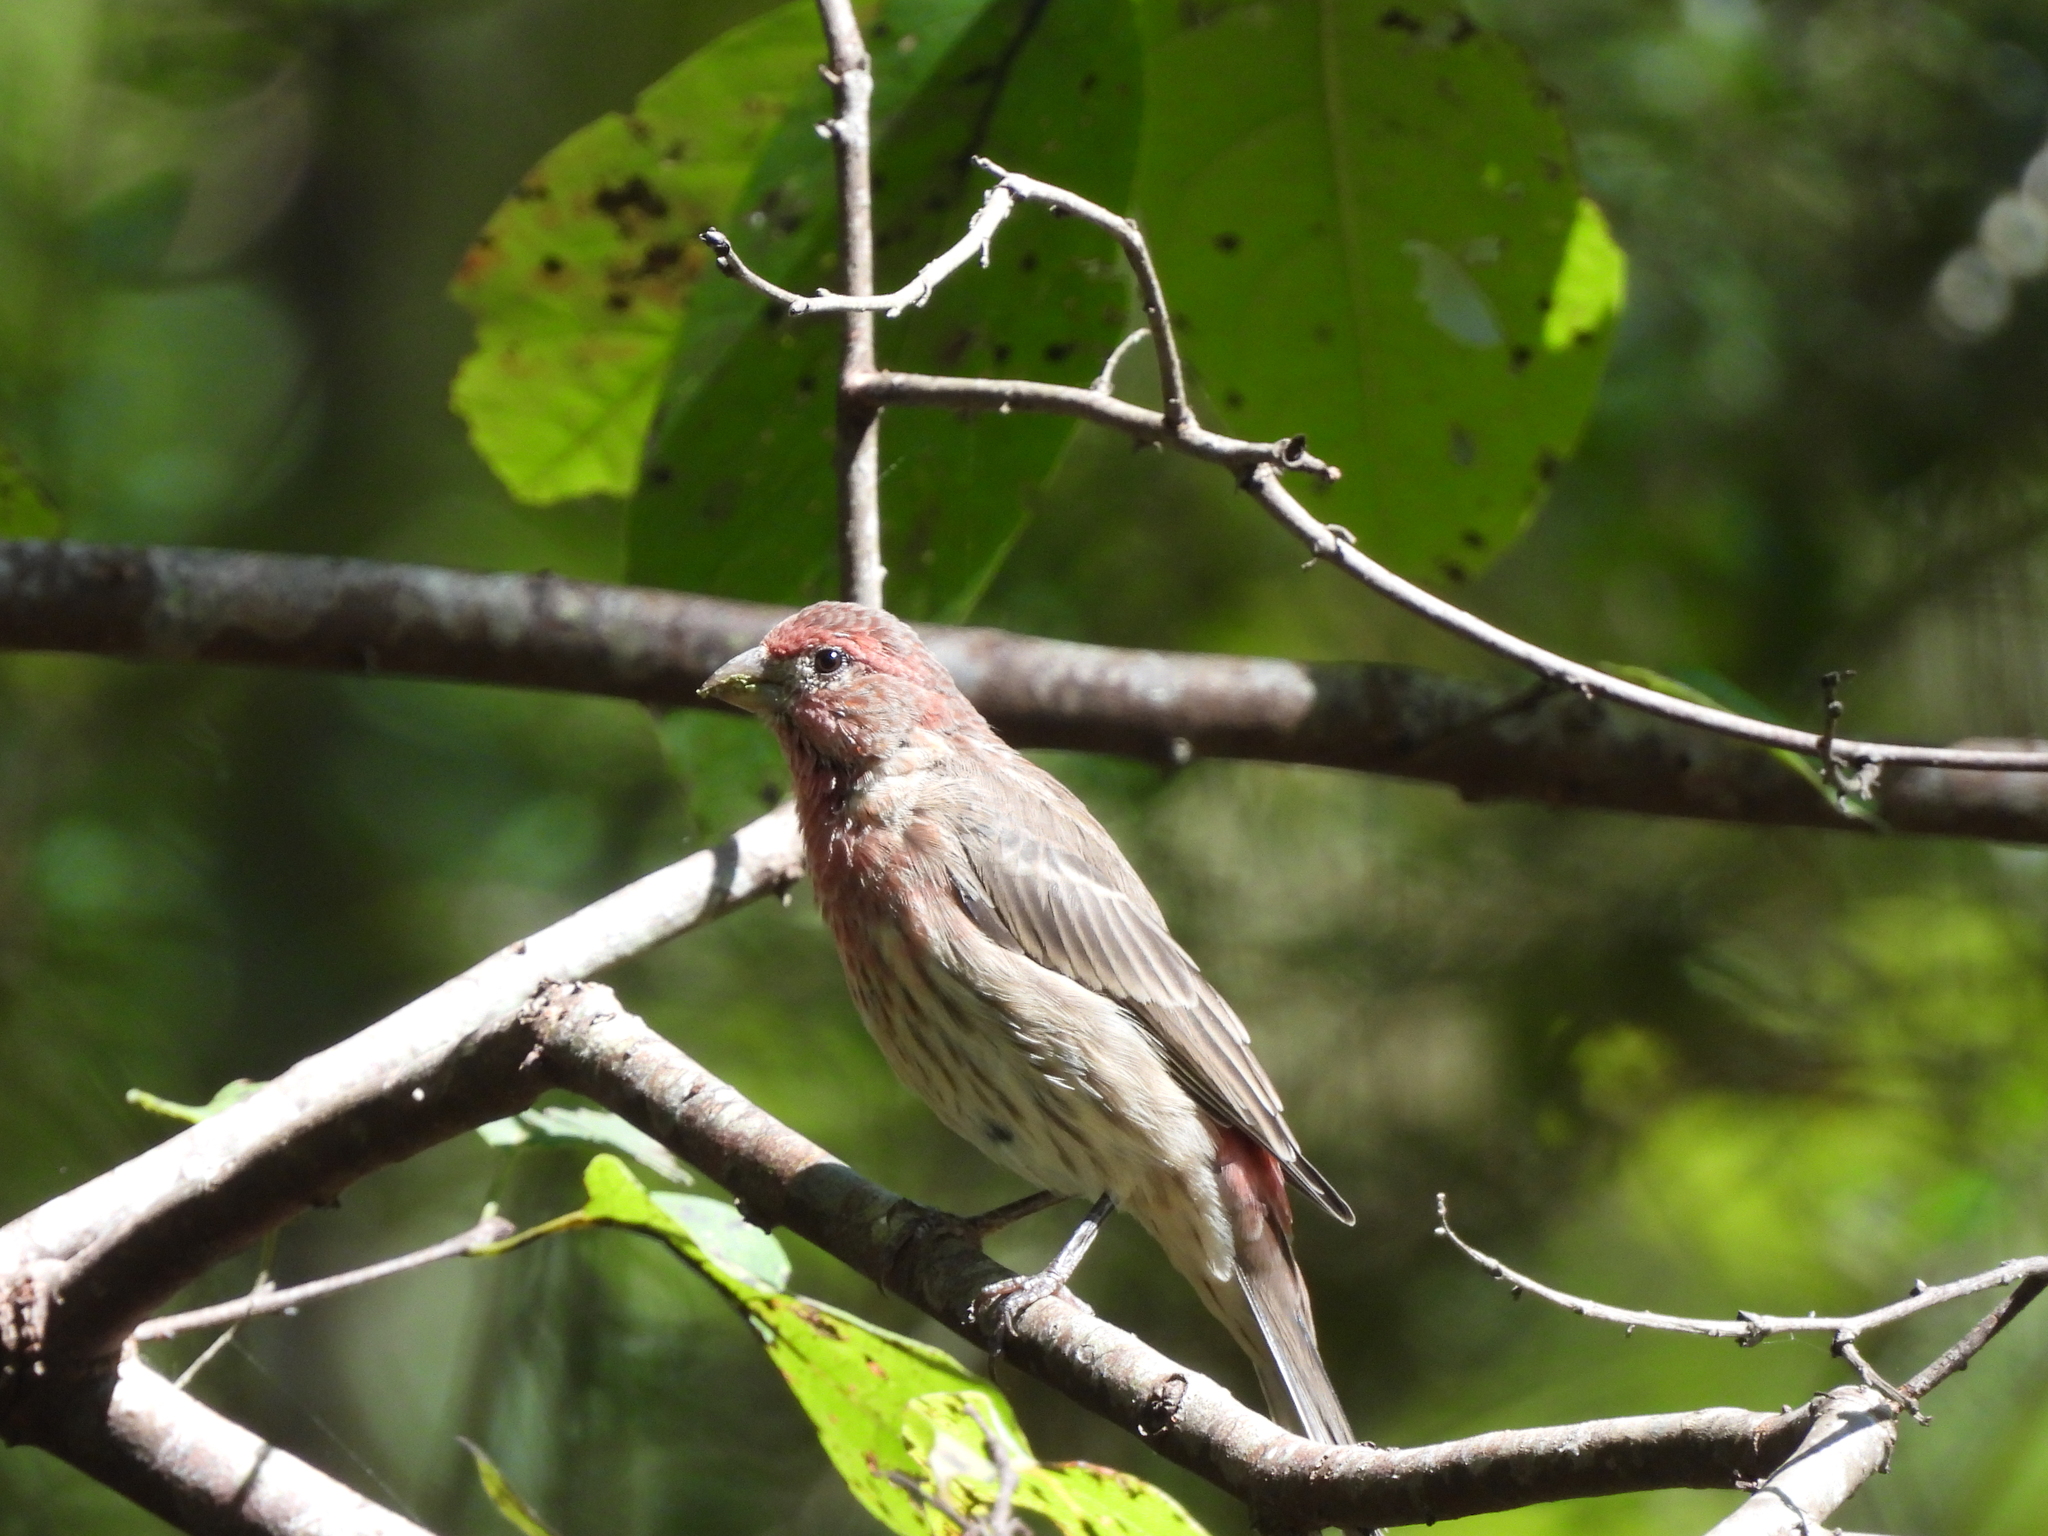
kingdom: Animalia
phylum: Chordata
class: Aves
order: Passeriformes
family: Fringillidae
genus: Haemorhous
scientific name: Haemorhous mexicanus
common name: House finch
